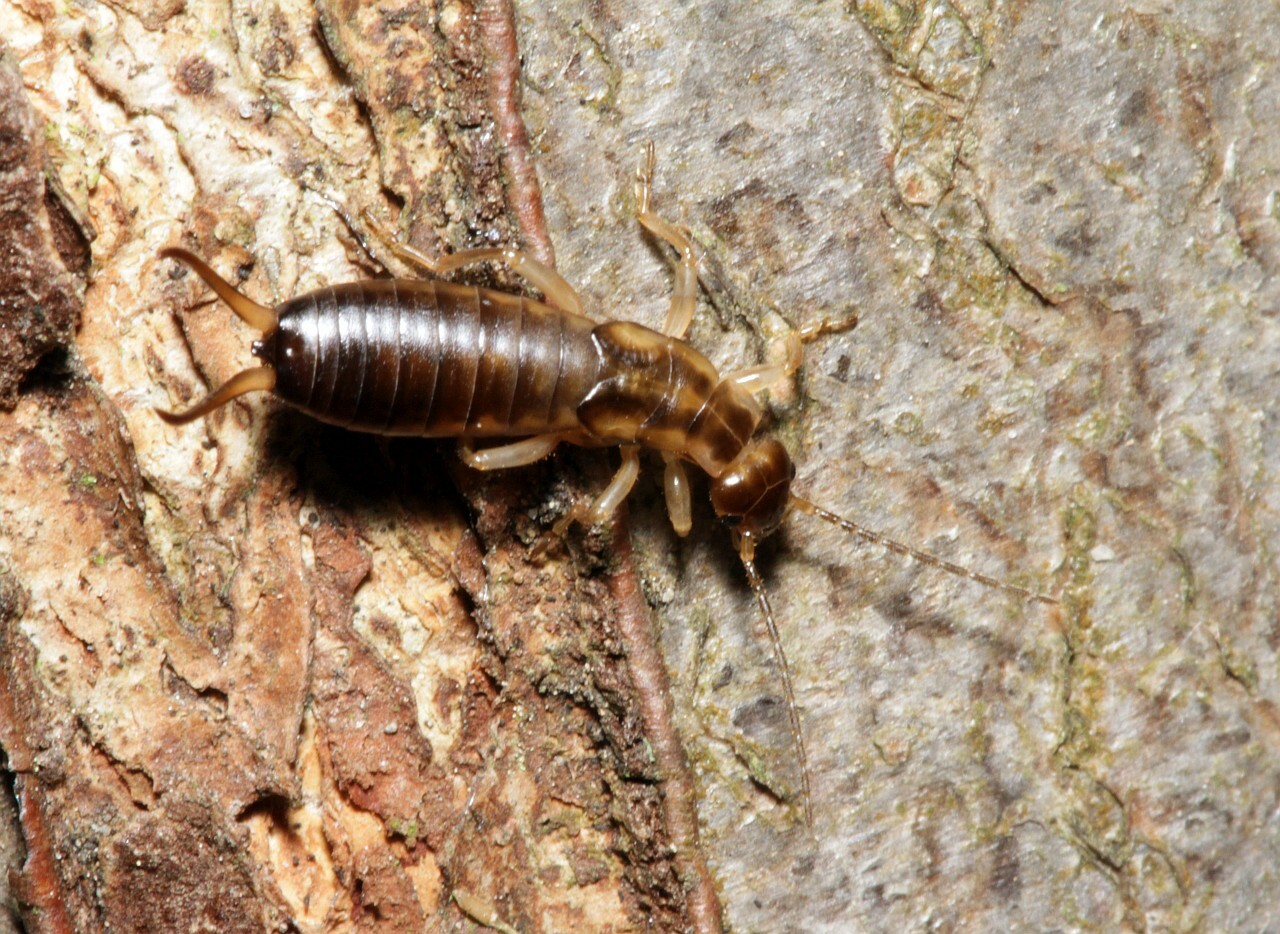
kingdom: Animalia
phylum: Arthropoda
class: Insecta
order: Dermaptera
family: Forficulidae
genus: Forficula
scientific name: Forficula
